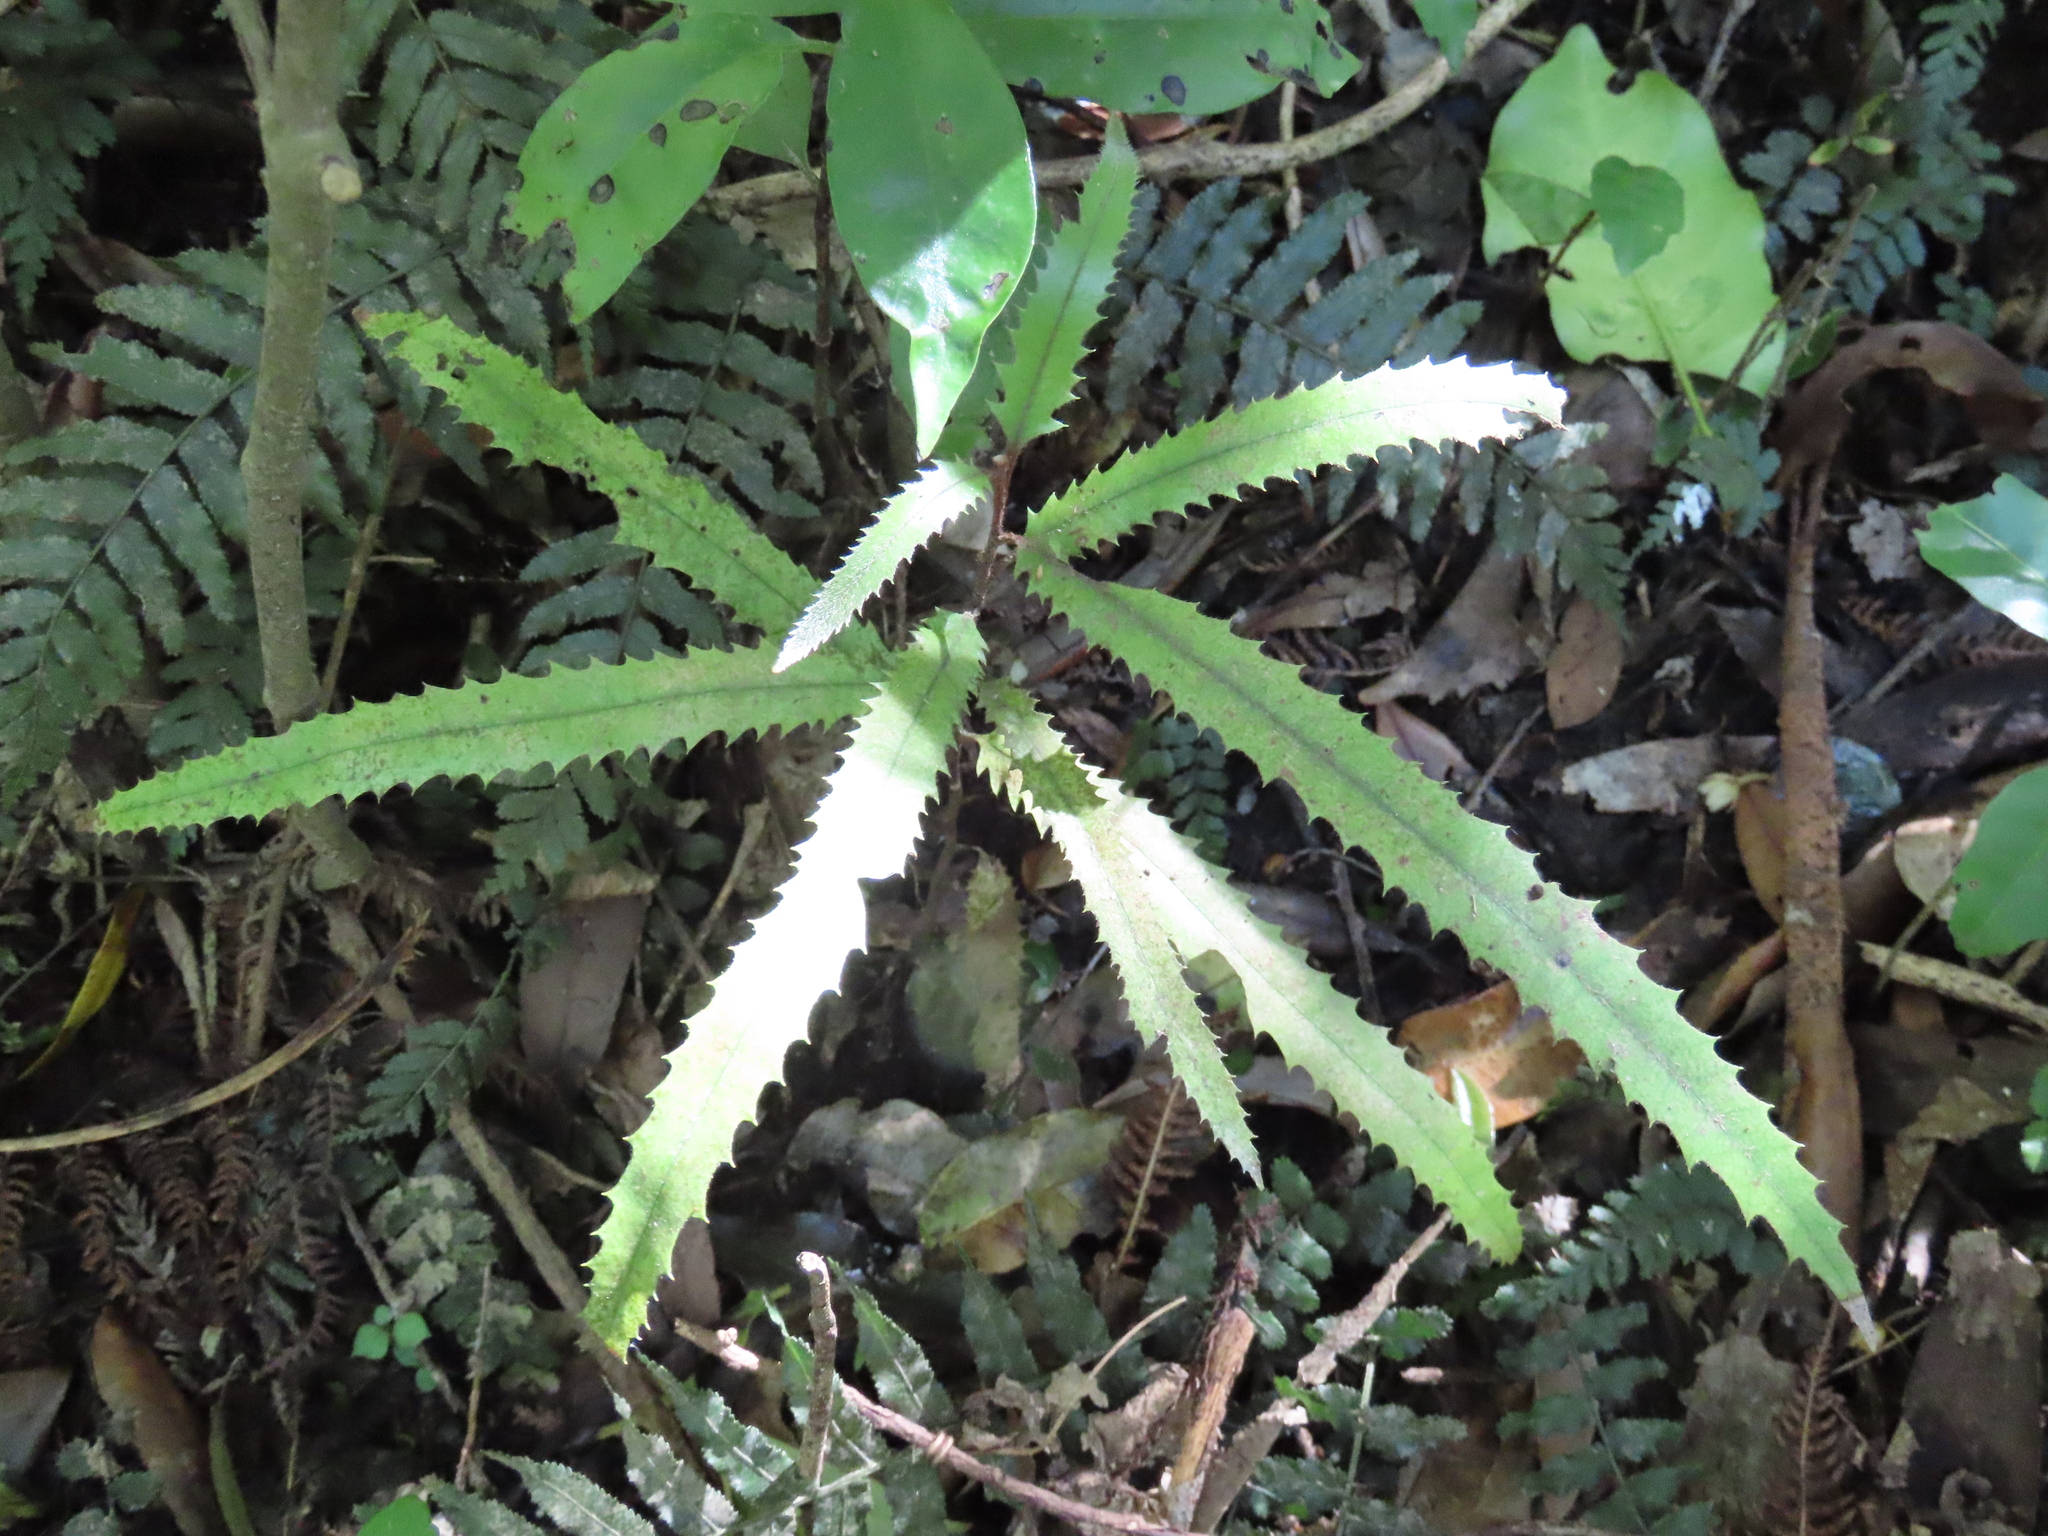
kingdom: Plantae
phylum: Tracheophyta
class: Magnoliopsida
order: Proteales
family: Proteaceae
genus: Knightia
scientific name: Knightia excelsa
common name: New zealand-honeysuckle
